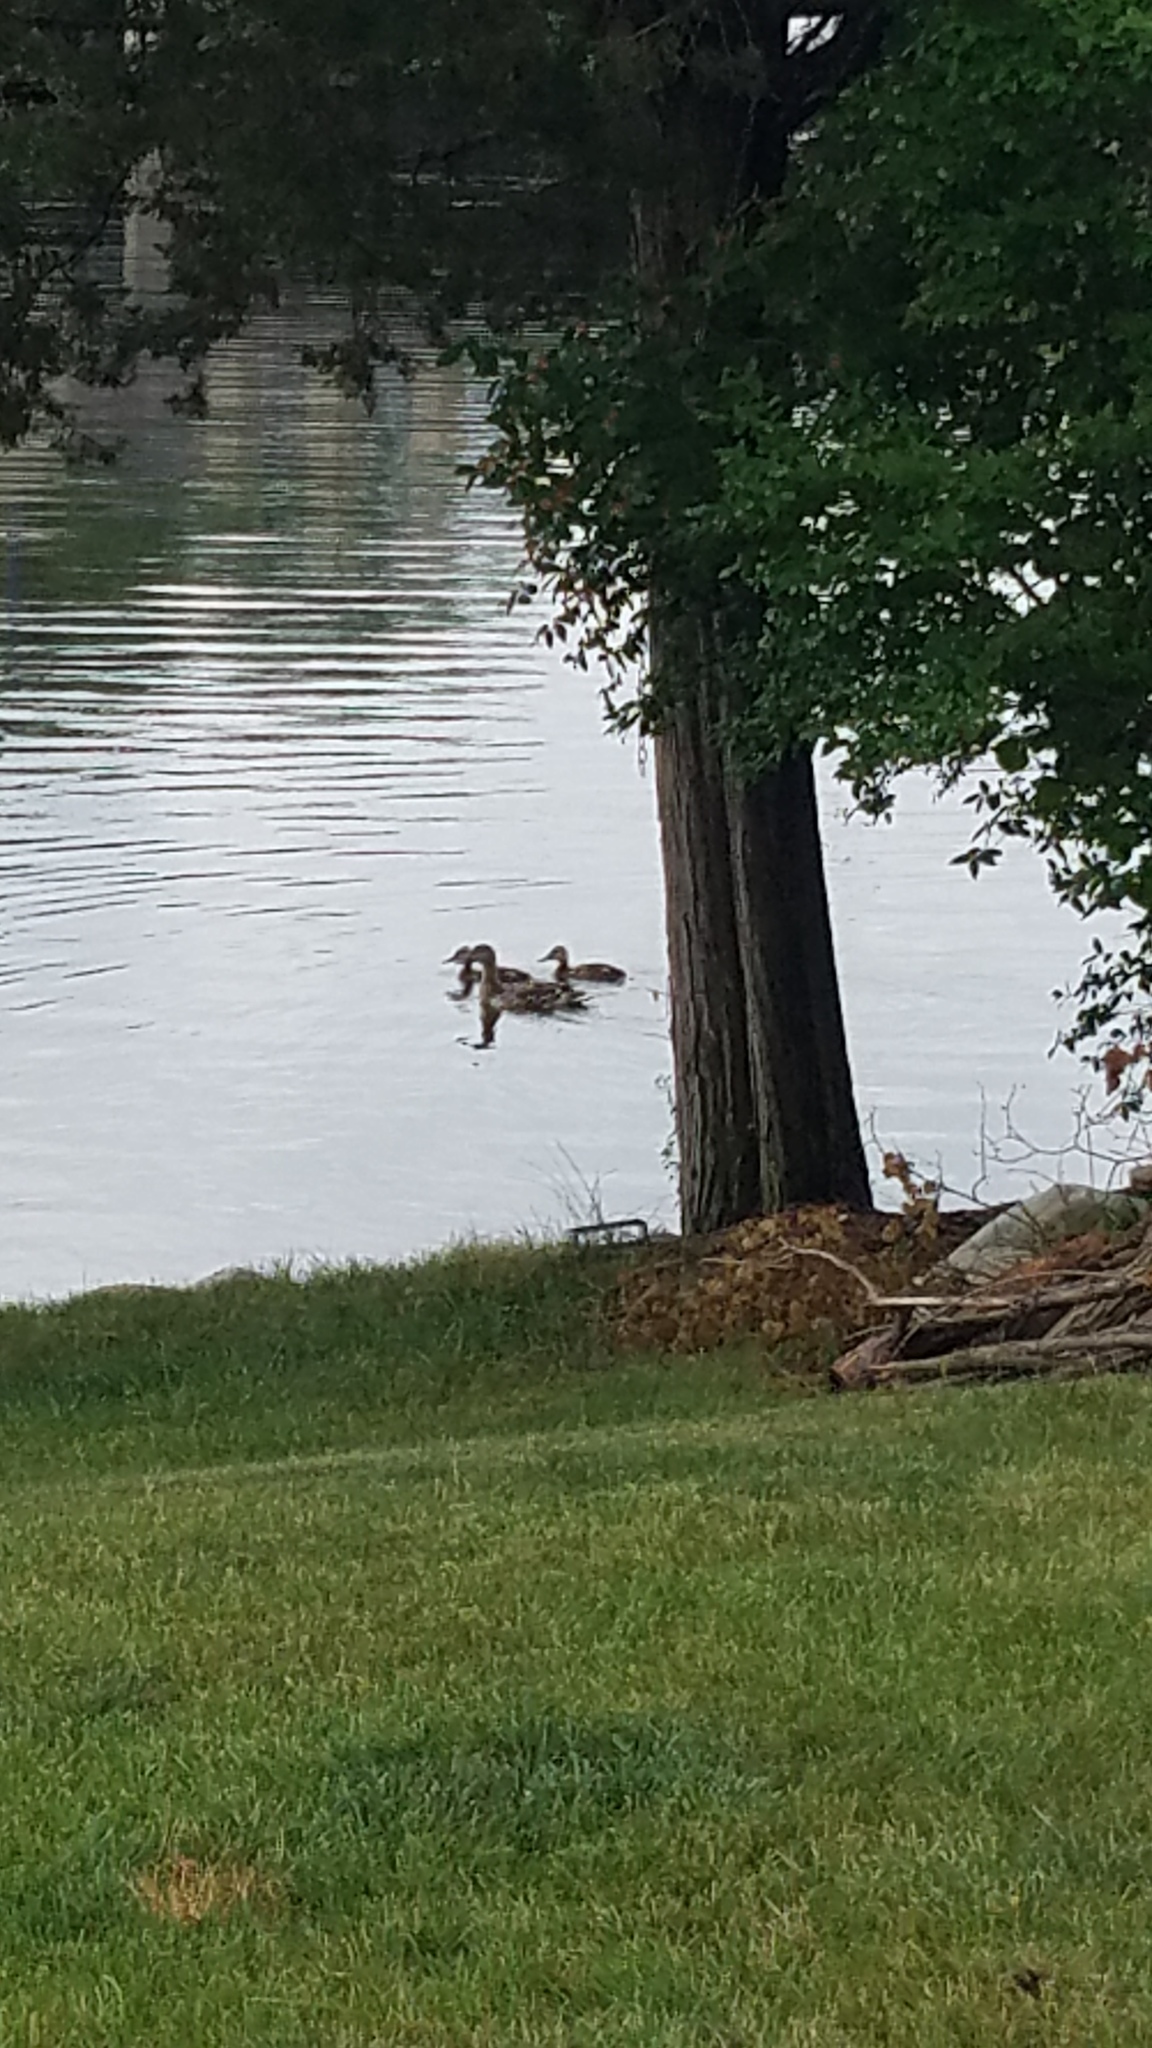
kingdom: Animalia
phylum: Chordata
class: Aves
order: Anseriformes
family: Anatidae
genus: Anas
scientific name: Anas platyrhynchos
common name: Mallard
